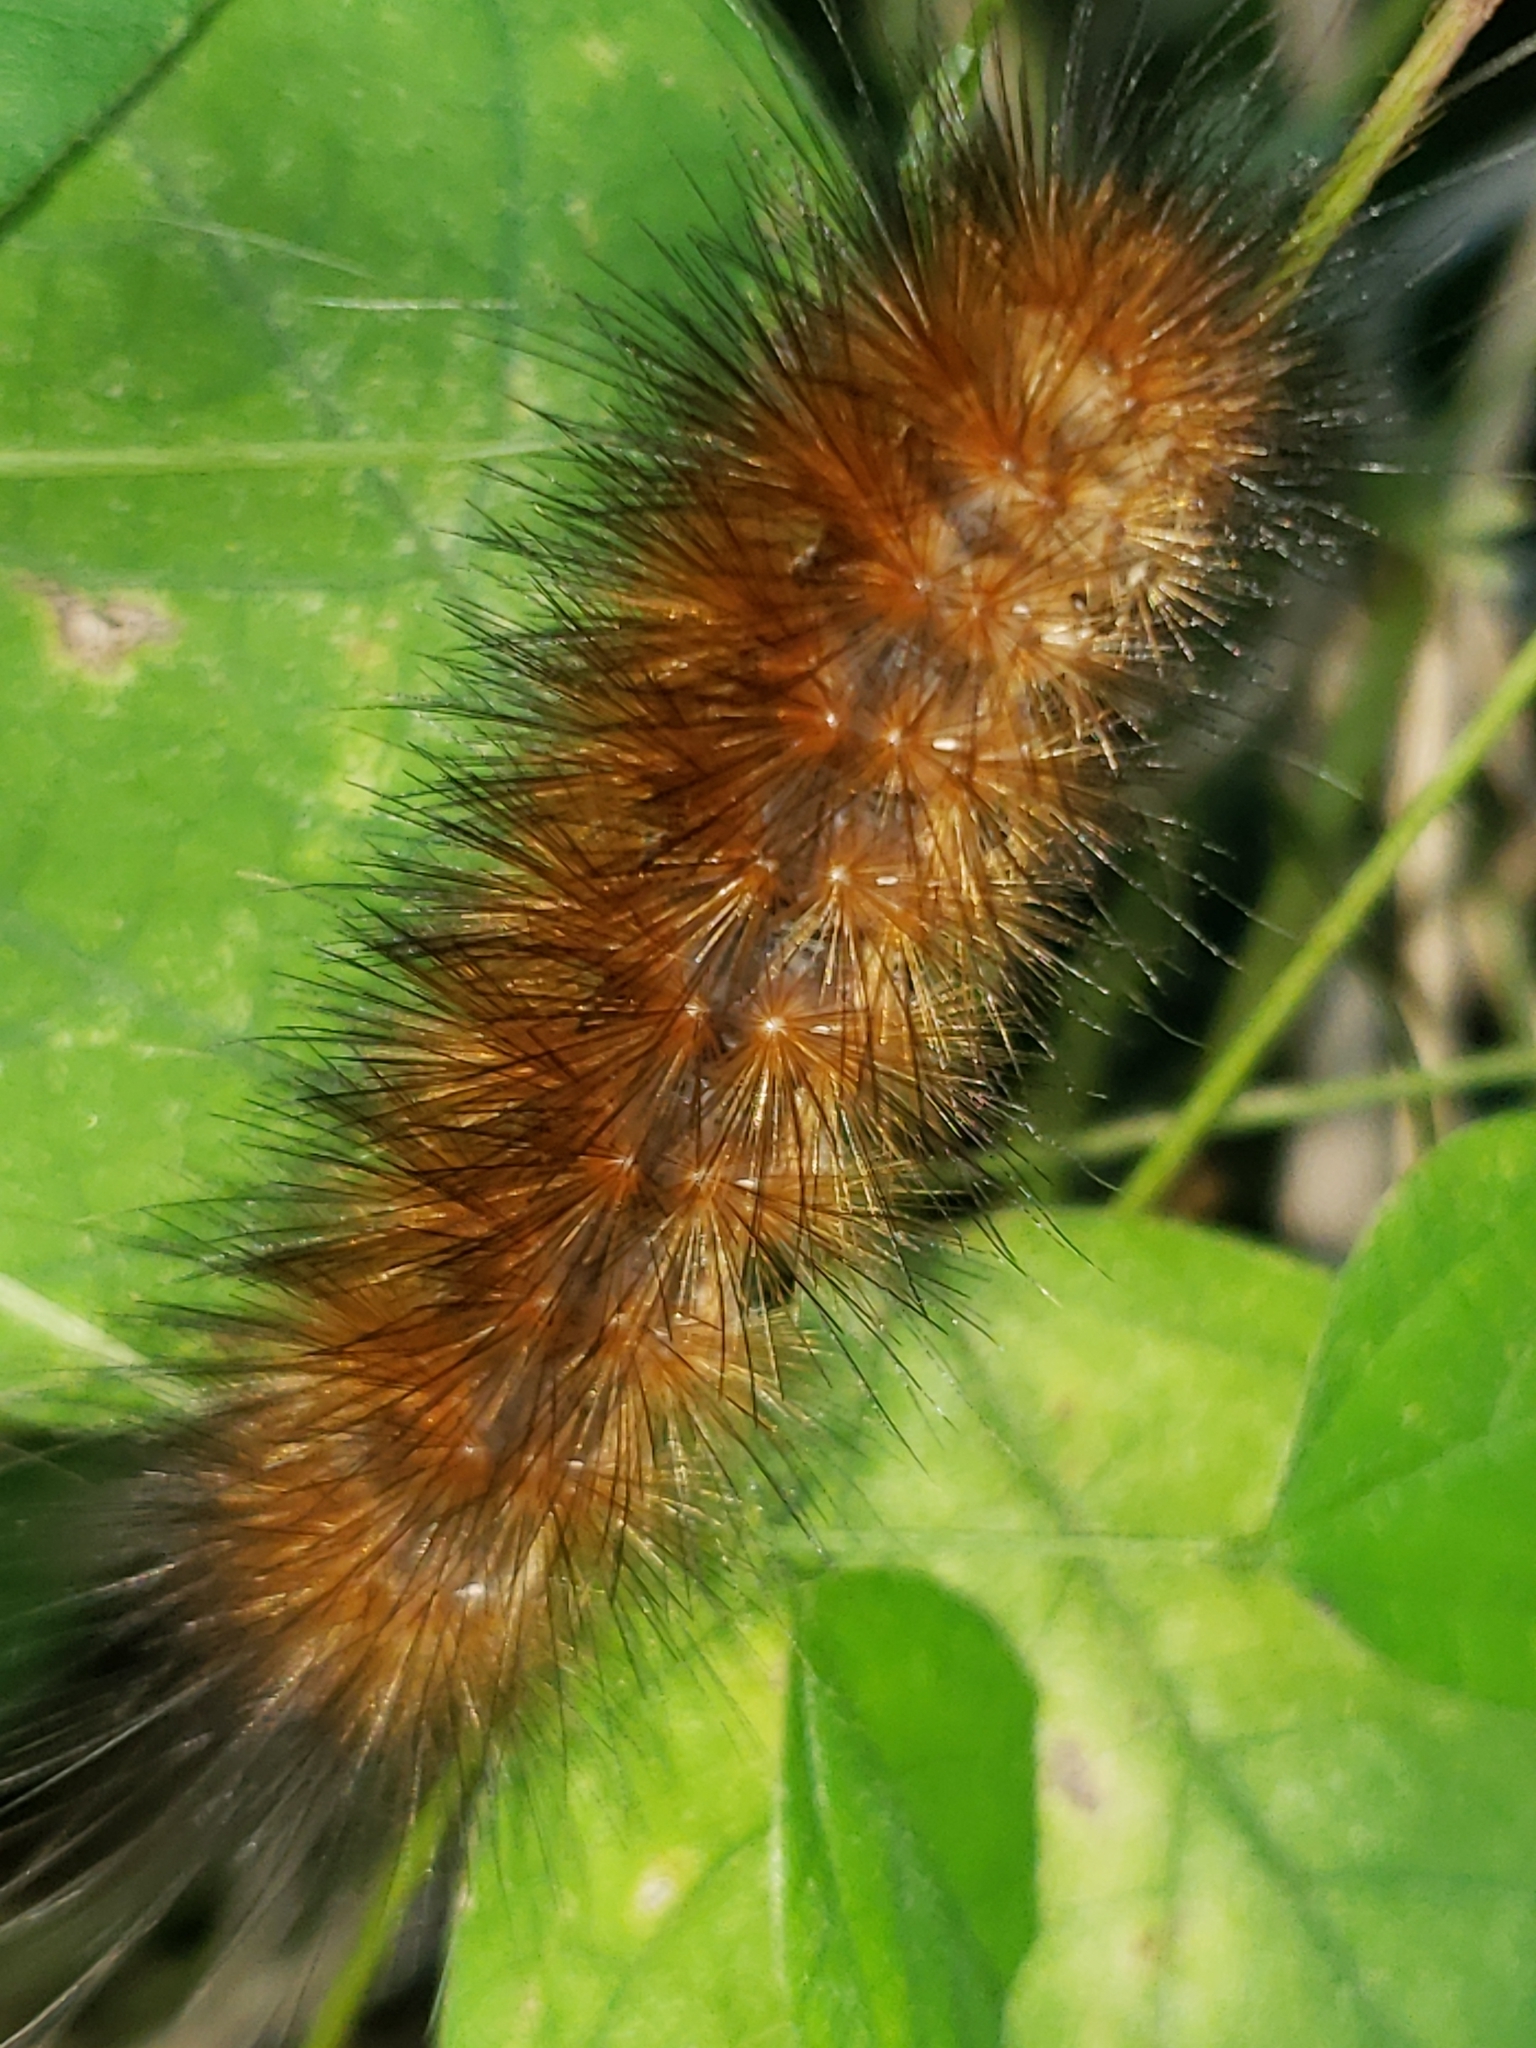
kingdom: Animalia
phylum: Arthropoda
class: Insecta
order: Lepidoptera
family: Erebidae
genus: Spilosoma
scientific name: Spilosoma virginica
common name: Virginia tiger moth
